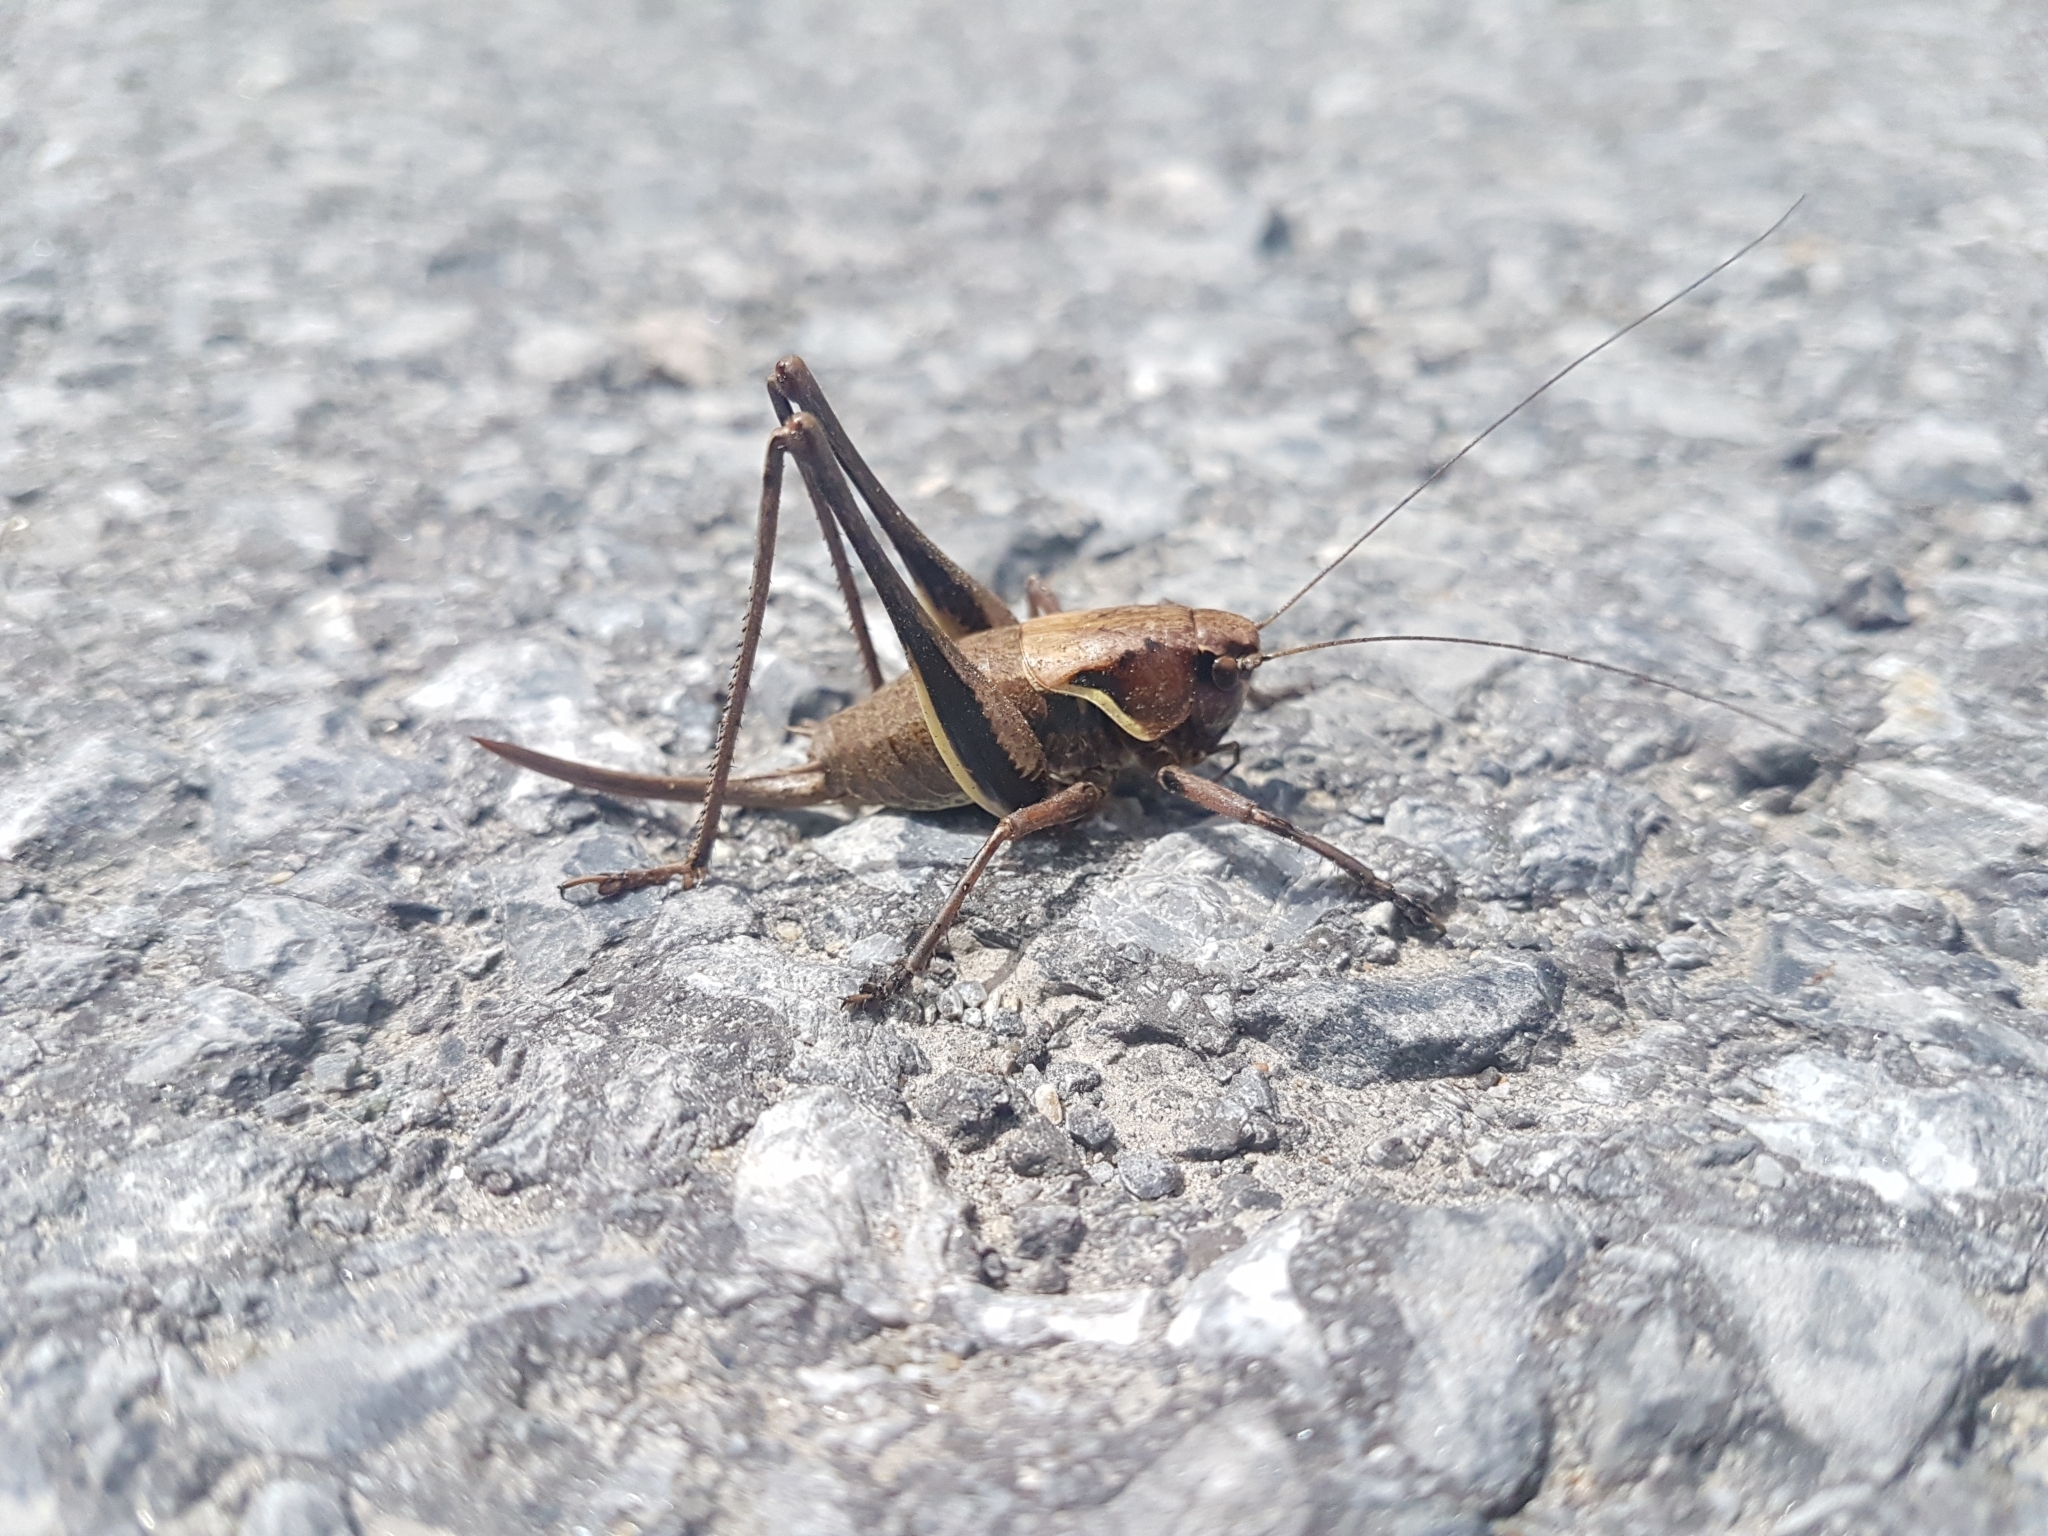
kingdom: Animalia
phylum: Arthropoda
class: Insecta
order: Orthoptera
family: Tettigoniidae
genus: Pholidoptera
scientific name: Pholidoptera aptera
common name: Alpine dark bush-cricket
